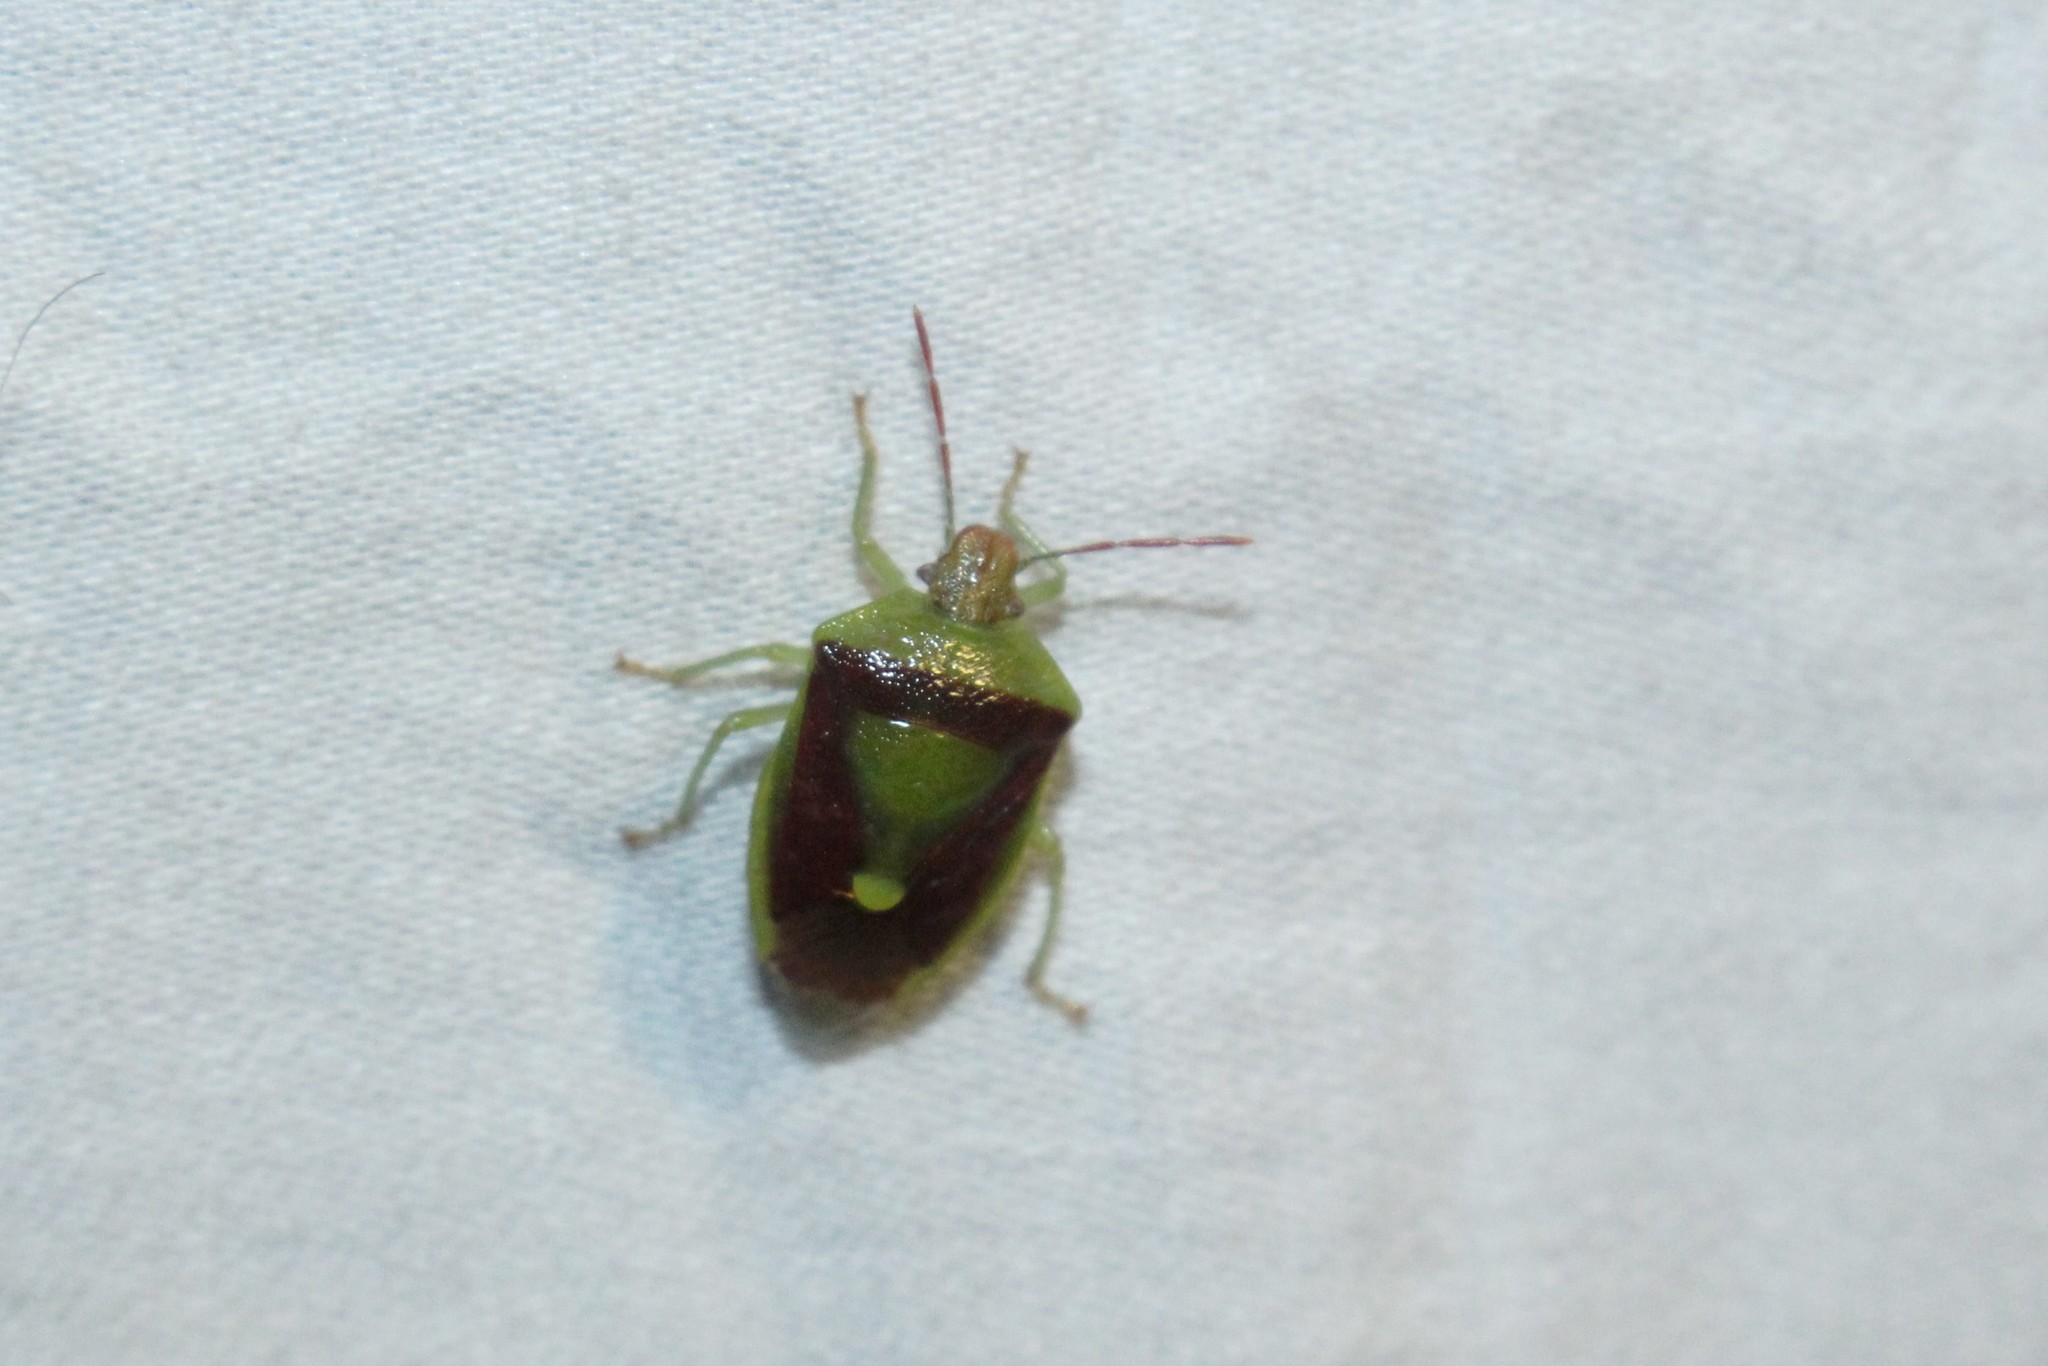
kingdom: Animalia
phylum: Arthropoda
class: Insecta
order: Hemiptera
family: Pentatomidae
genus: Banasa
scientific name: Banasa dimidiata
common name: Green burgundy stink bug
